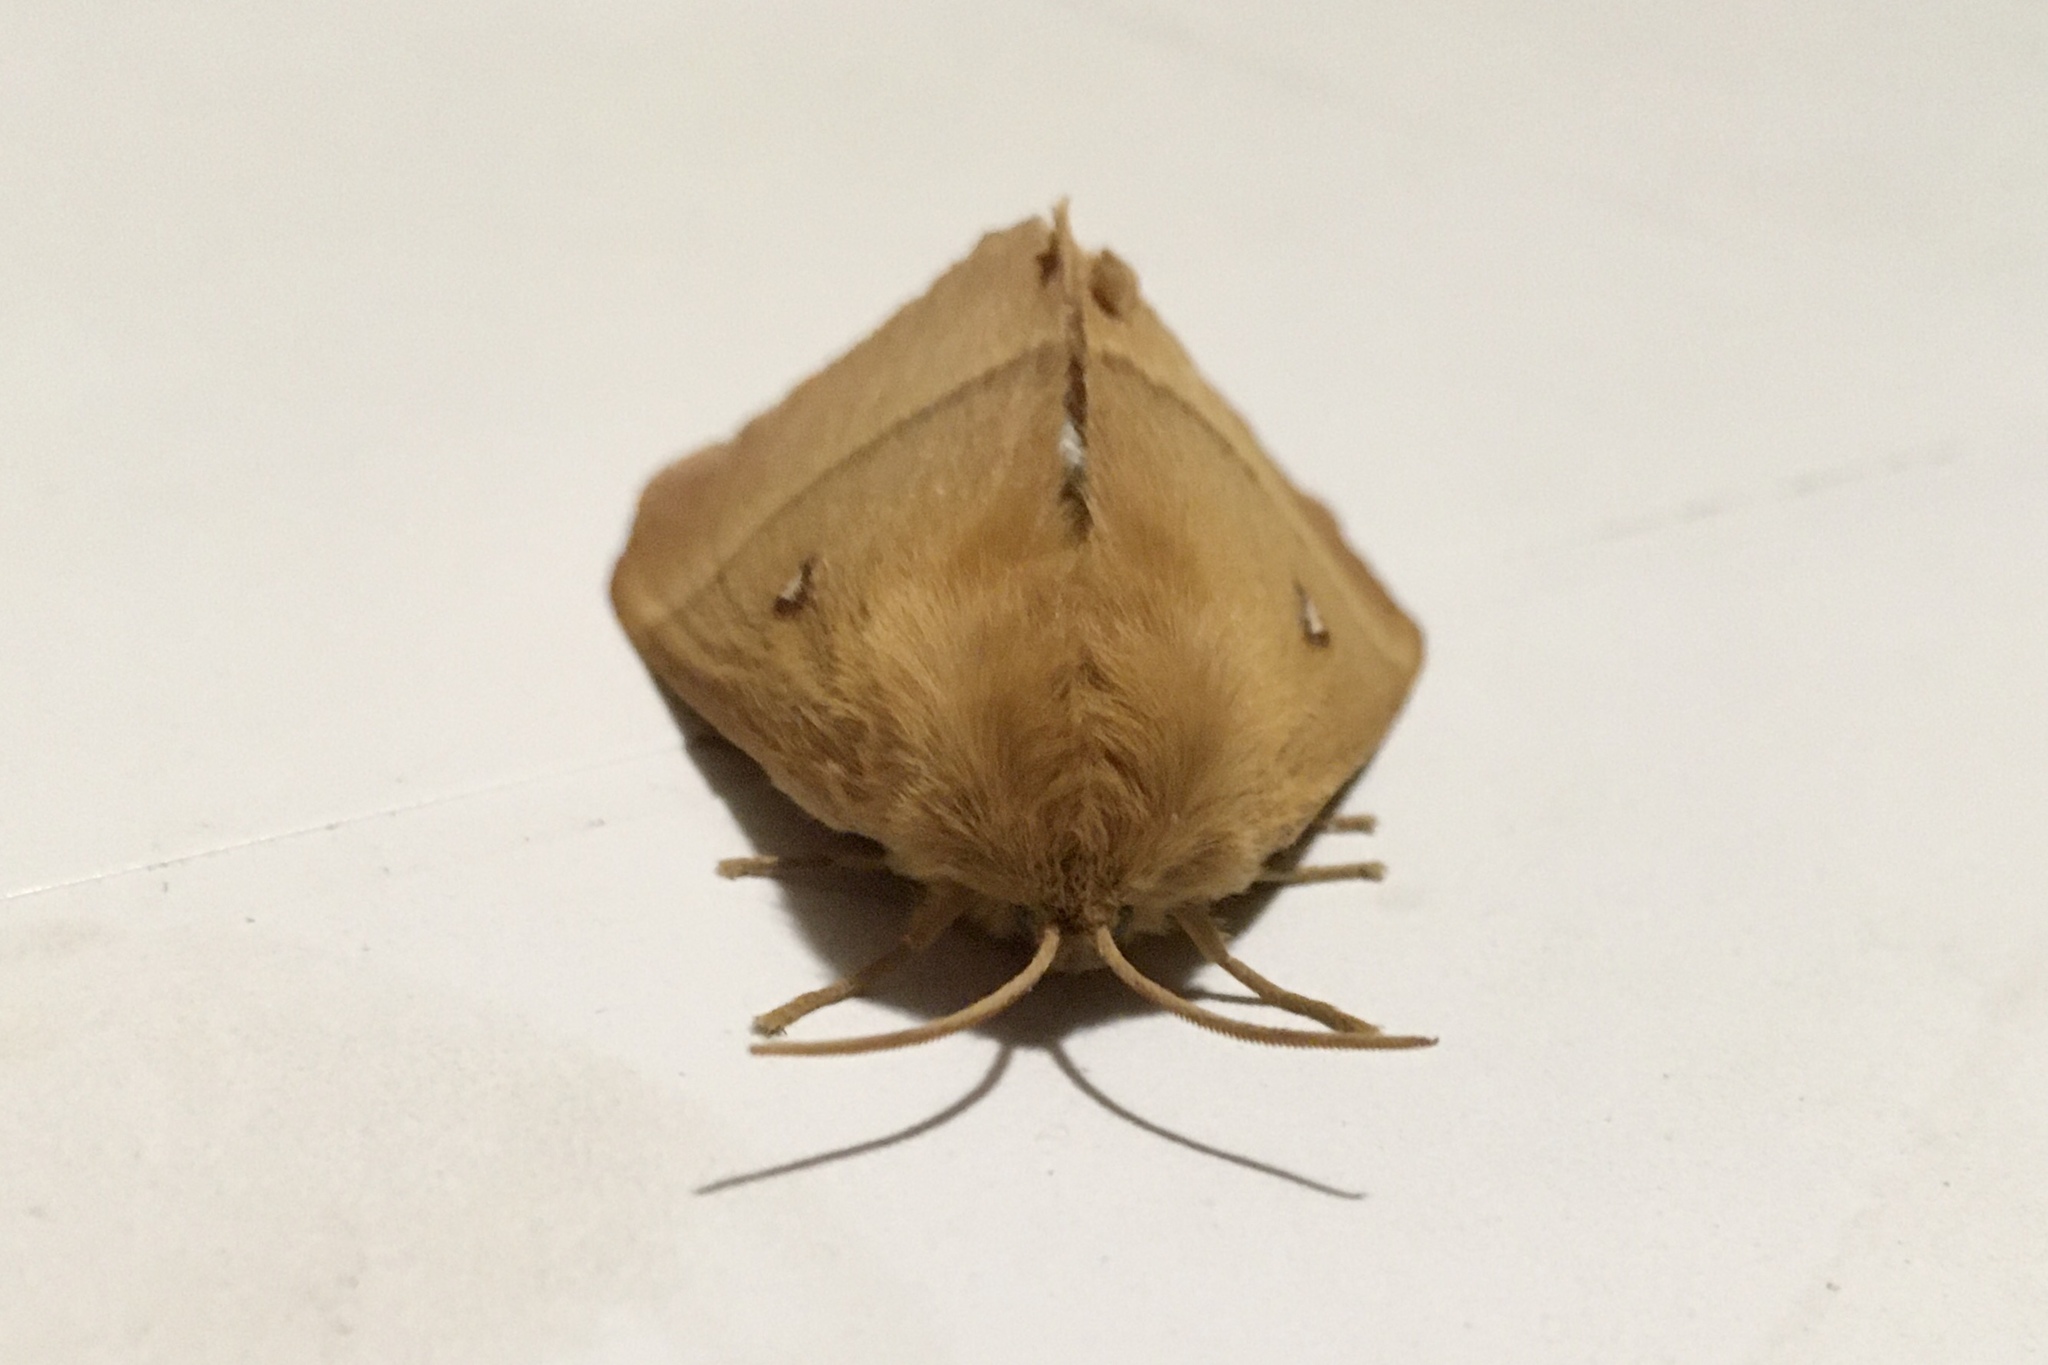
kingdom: Animalia
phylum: Arthropoda
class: Insecta
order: Lepidoptera
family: Lasiocampidae
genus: Lasiocampa
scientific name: Lasiocampa quercus
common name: Oak eggar
